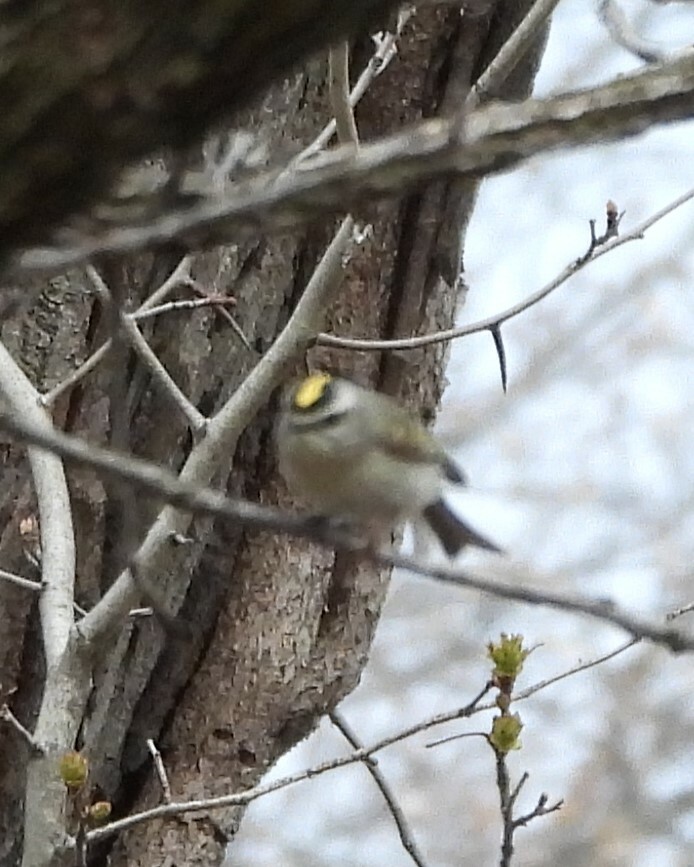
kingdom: Animalia
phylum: Chordata
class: Aves
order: Passeriformes
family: Regulidae
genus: Regulus
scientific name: Regulus satrapa
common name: Golden-crowned kinglet
